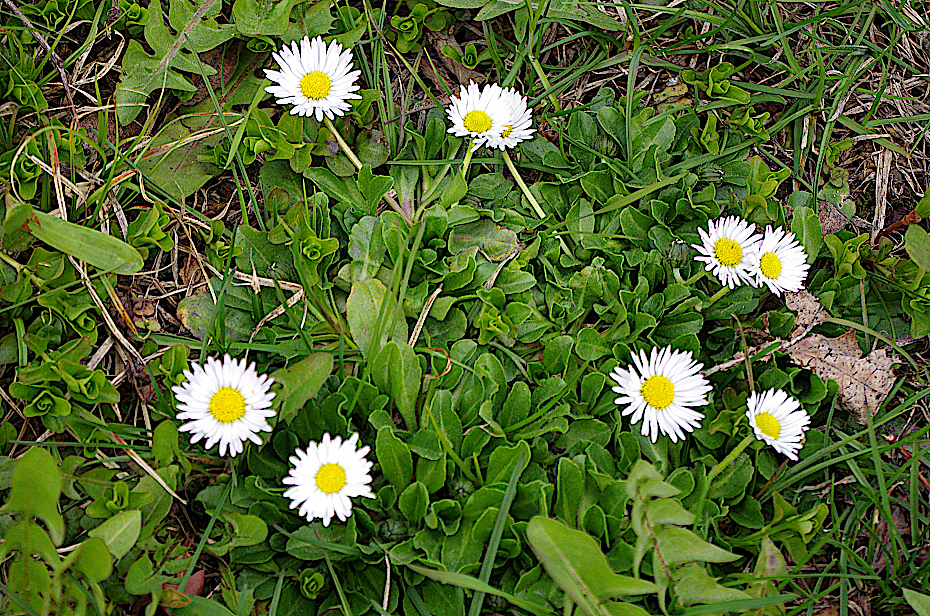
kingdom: Plantae
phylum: Tracheophyta
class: Magnoliopsida
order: Asterales
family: Asteraceae
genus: Bellis
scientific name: Bellis perennis
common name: Lawndaisy
